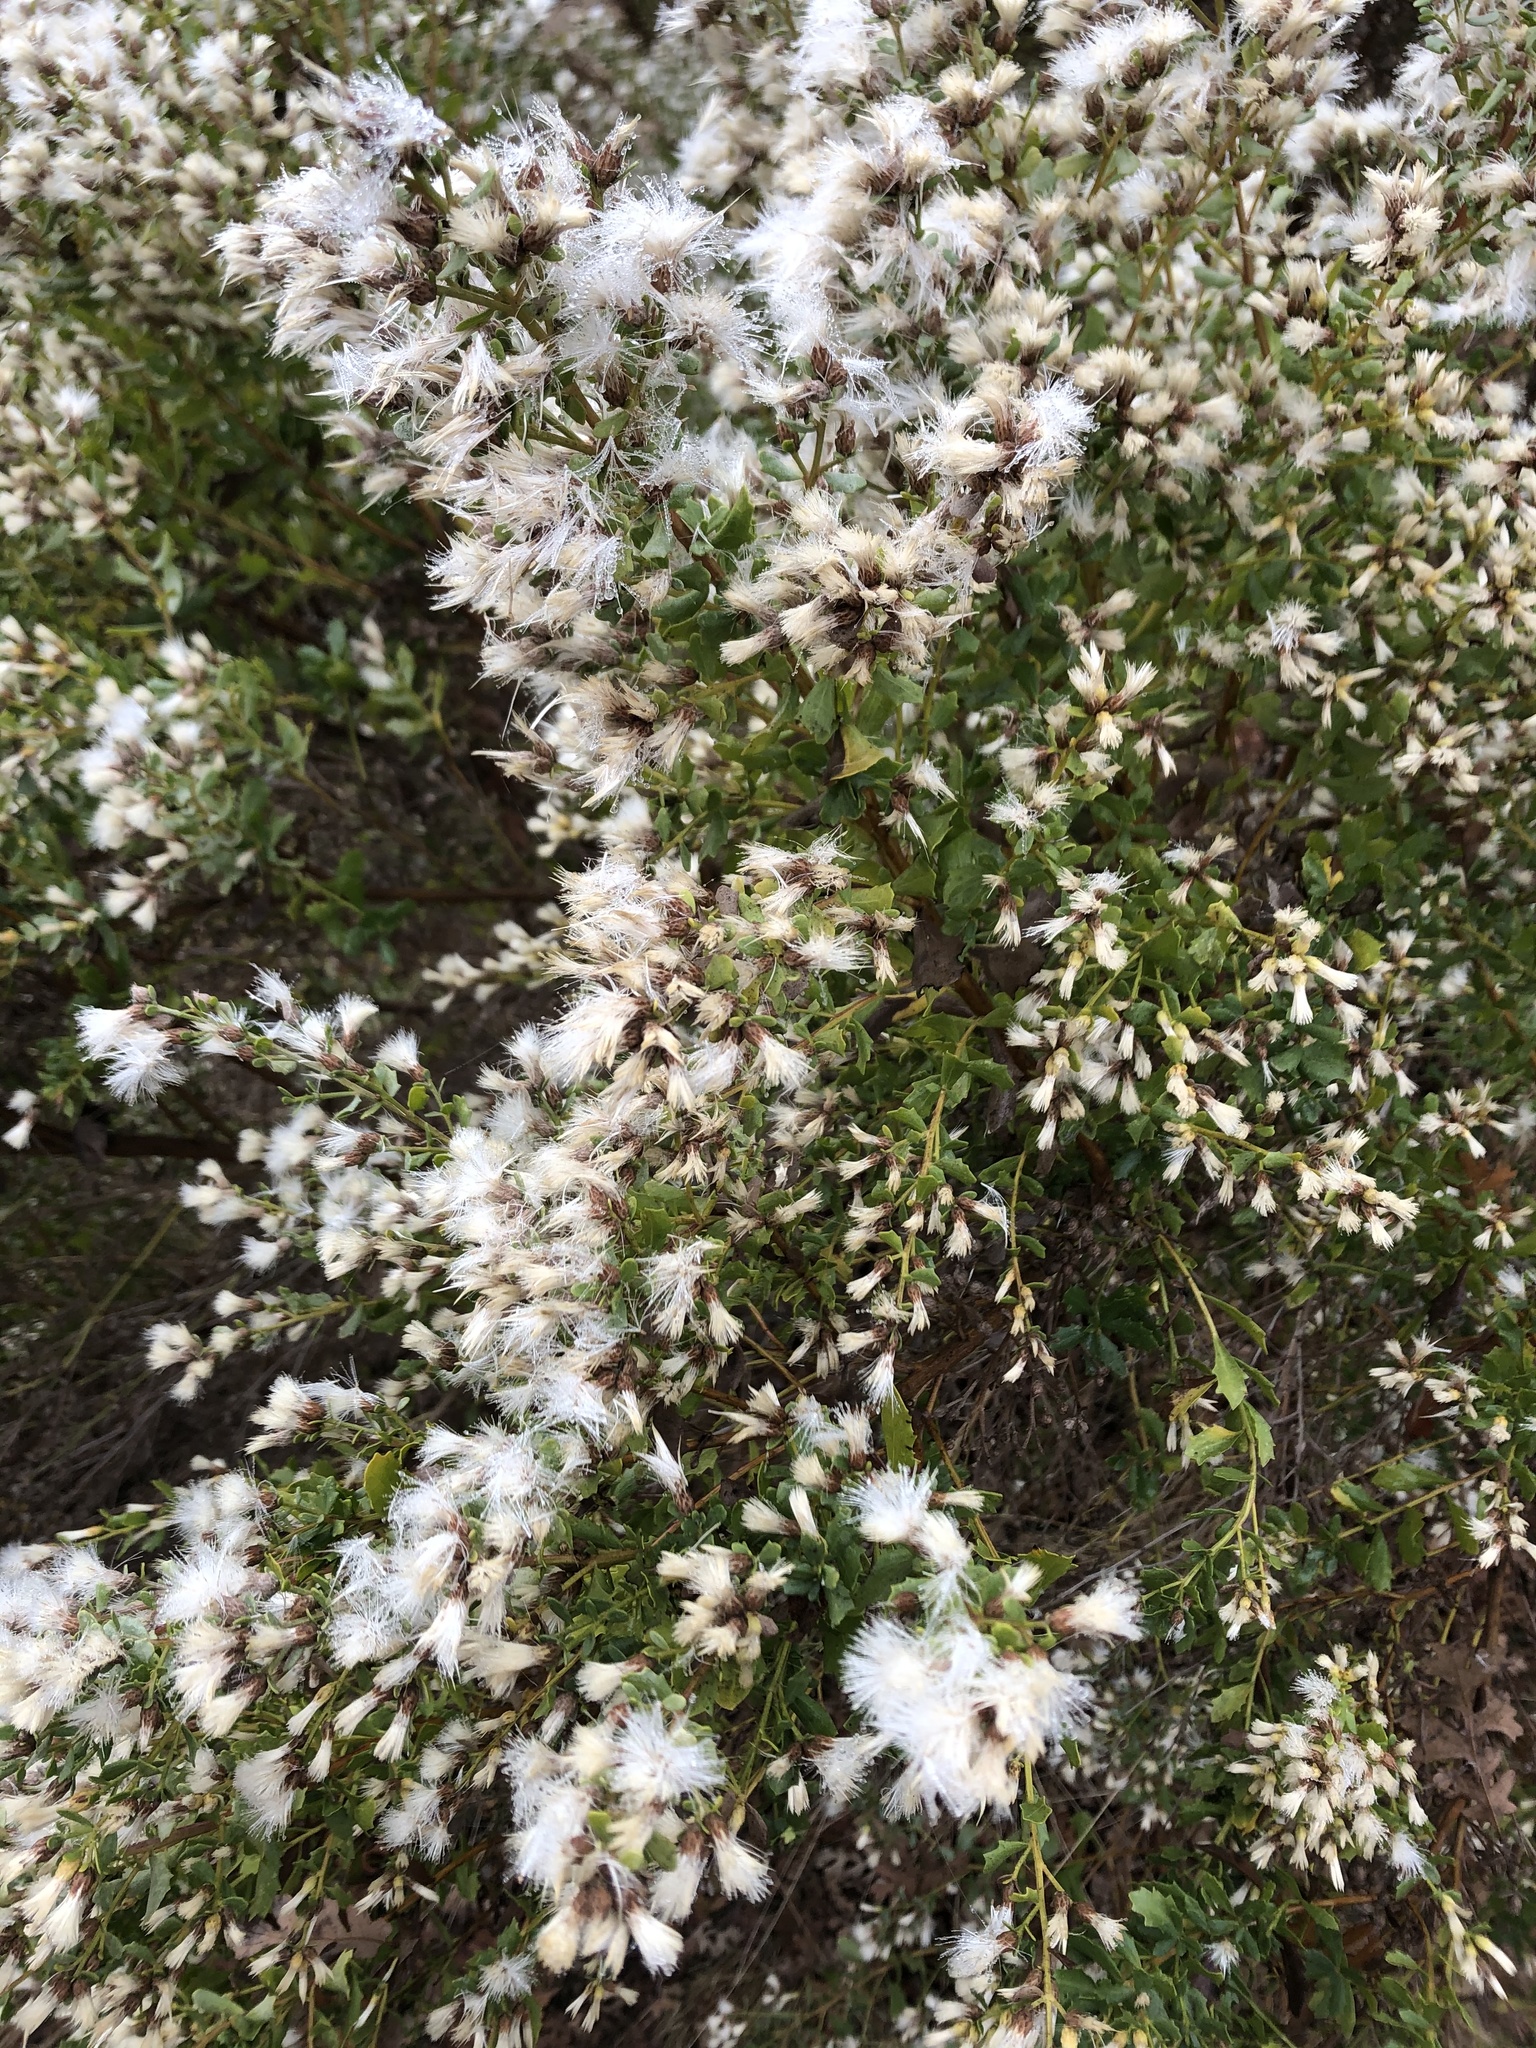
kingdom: Plantae
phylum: Tracheophyta
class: Magnoliopsida
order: Asterales
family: Asteraceae
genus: Baccharis
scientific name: Baccharis pilularis
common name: Coyotebrush
